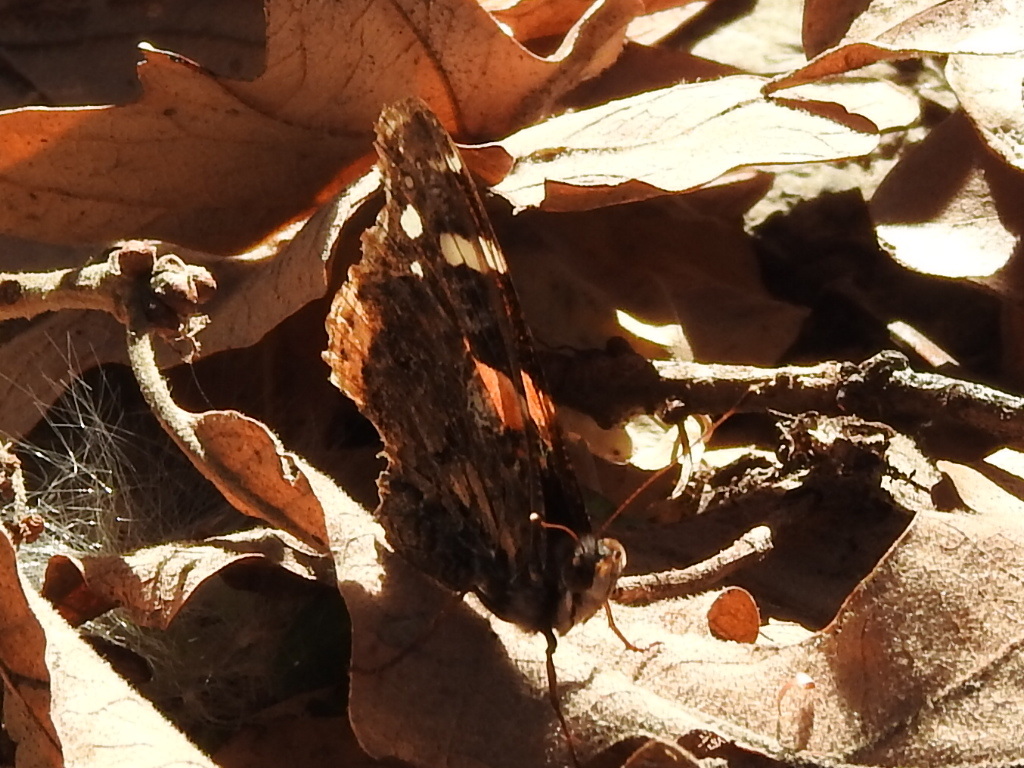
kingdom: Animalia
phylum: Arthropoda
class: Insecta
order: Lepidoptera
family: Nymphalidae
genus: Vanessa
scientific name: Vanessa atalanta
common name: Red admiral
